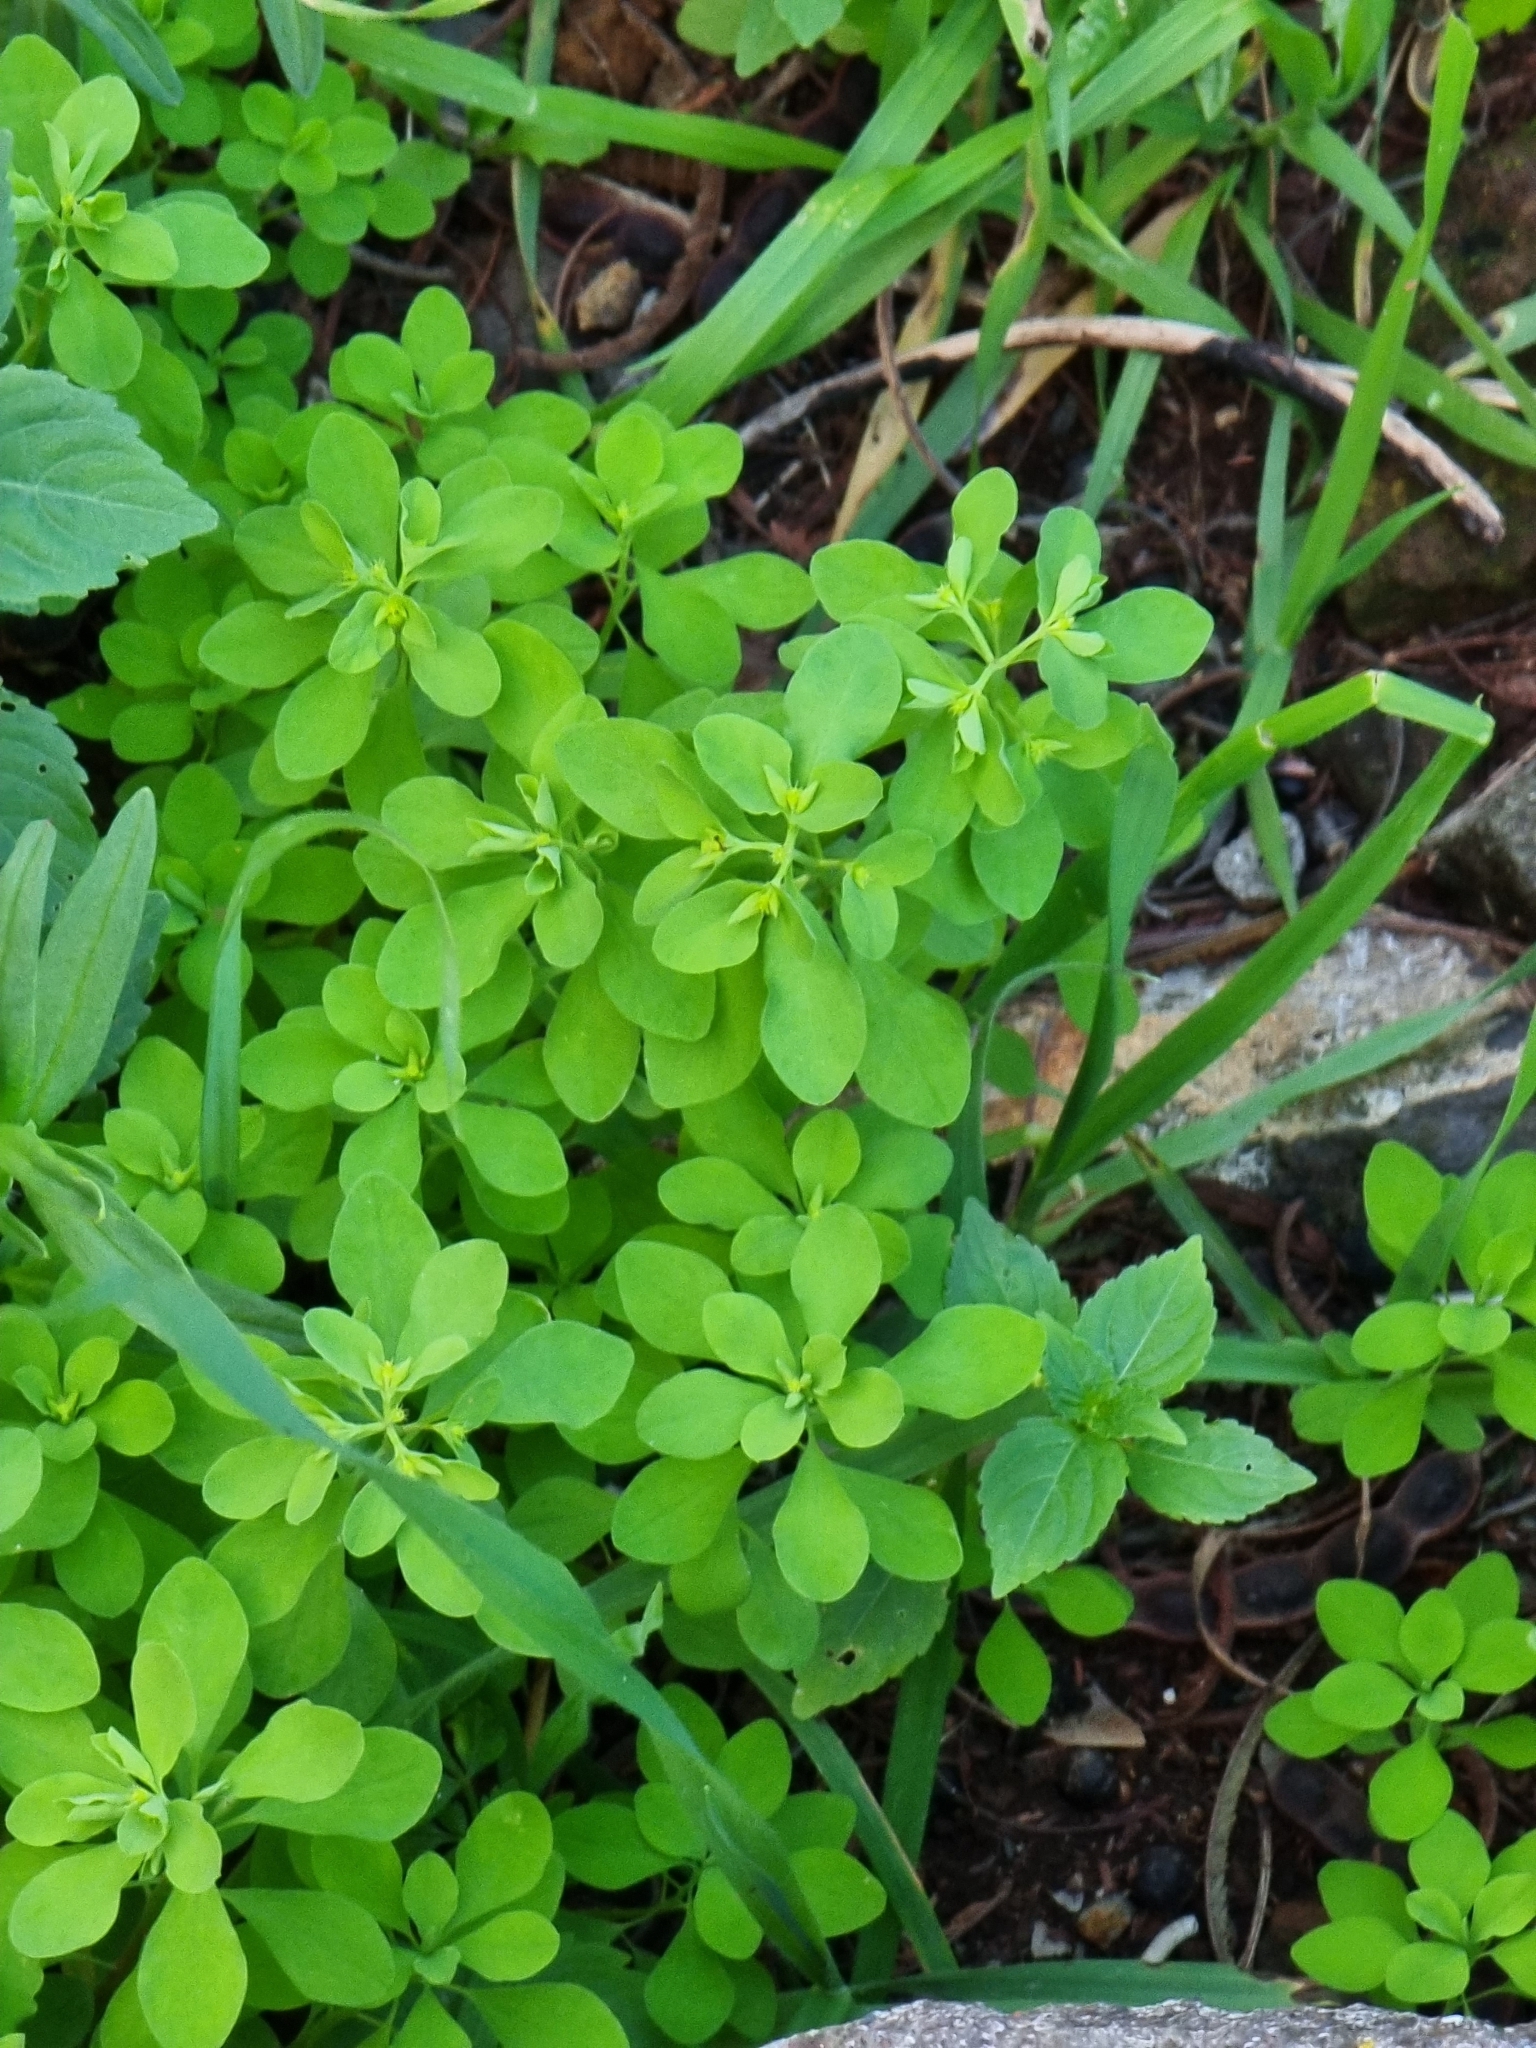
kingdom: Plantae
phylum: Tracheophyta
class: Magnoliopsida
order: Malpighiales
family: Euphorbiaceae
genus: Euphorbia
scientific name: Euphorbia peplus
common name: Petty spurge
